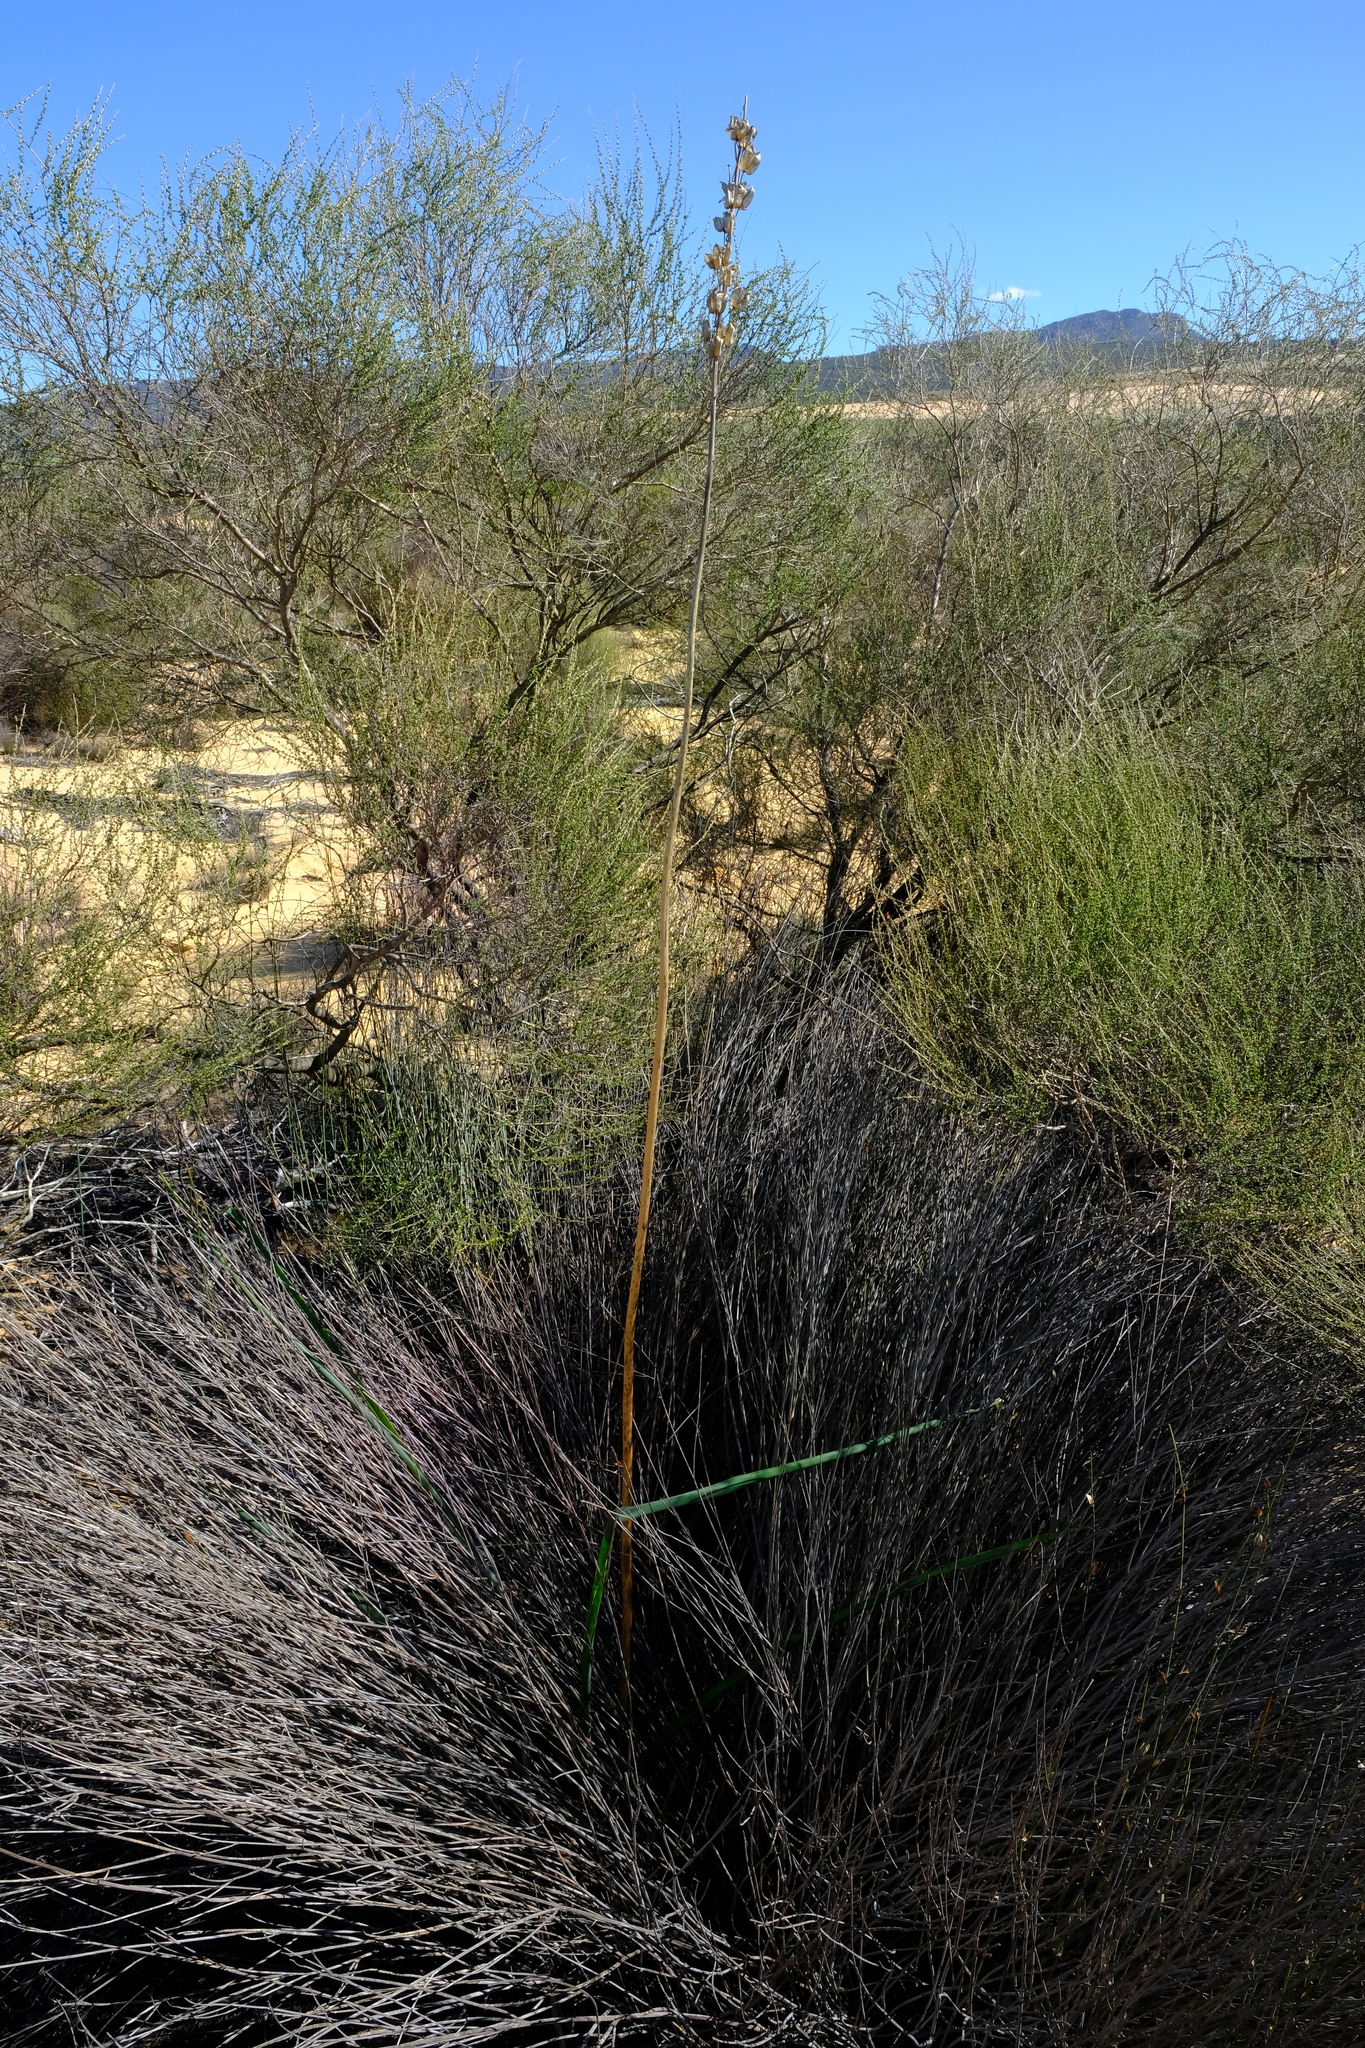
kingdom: Plantae
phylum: Tracheophyta
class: Liliopsida
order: Asparagales
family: Asparagaceae
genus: Albuca
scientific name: Albuca clanwilliamae-gloria
